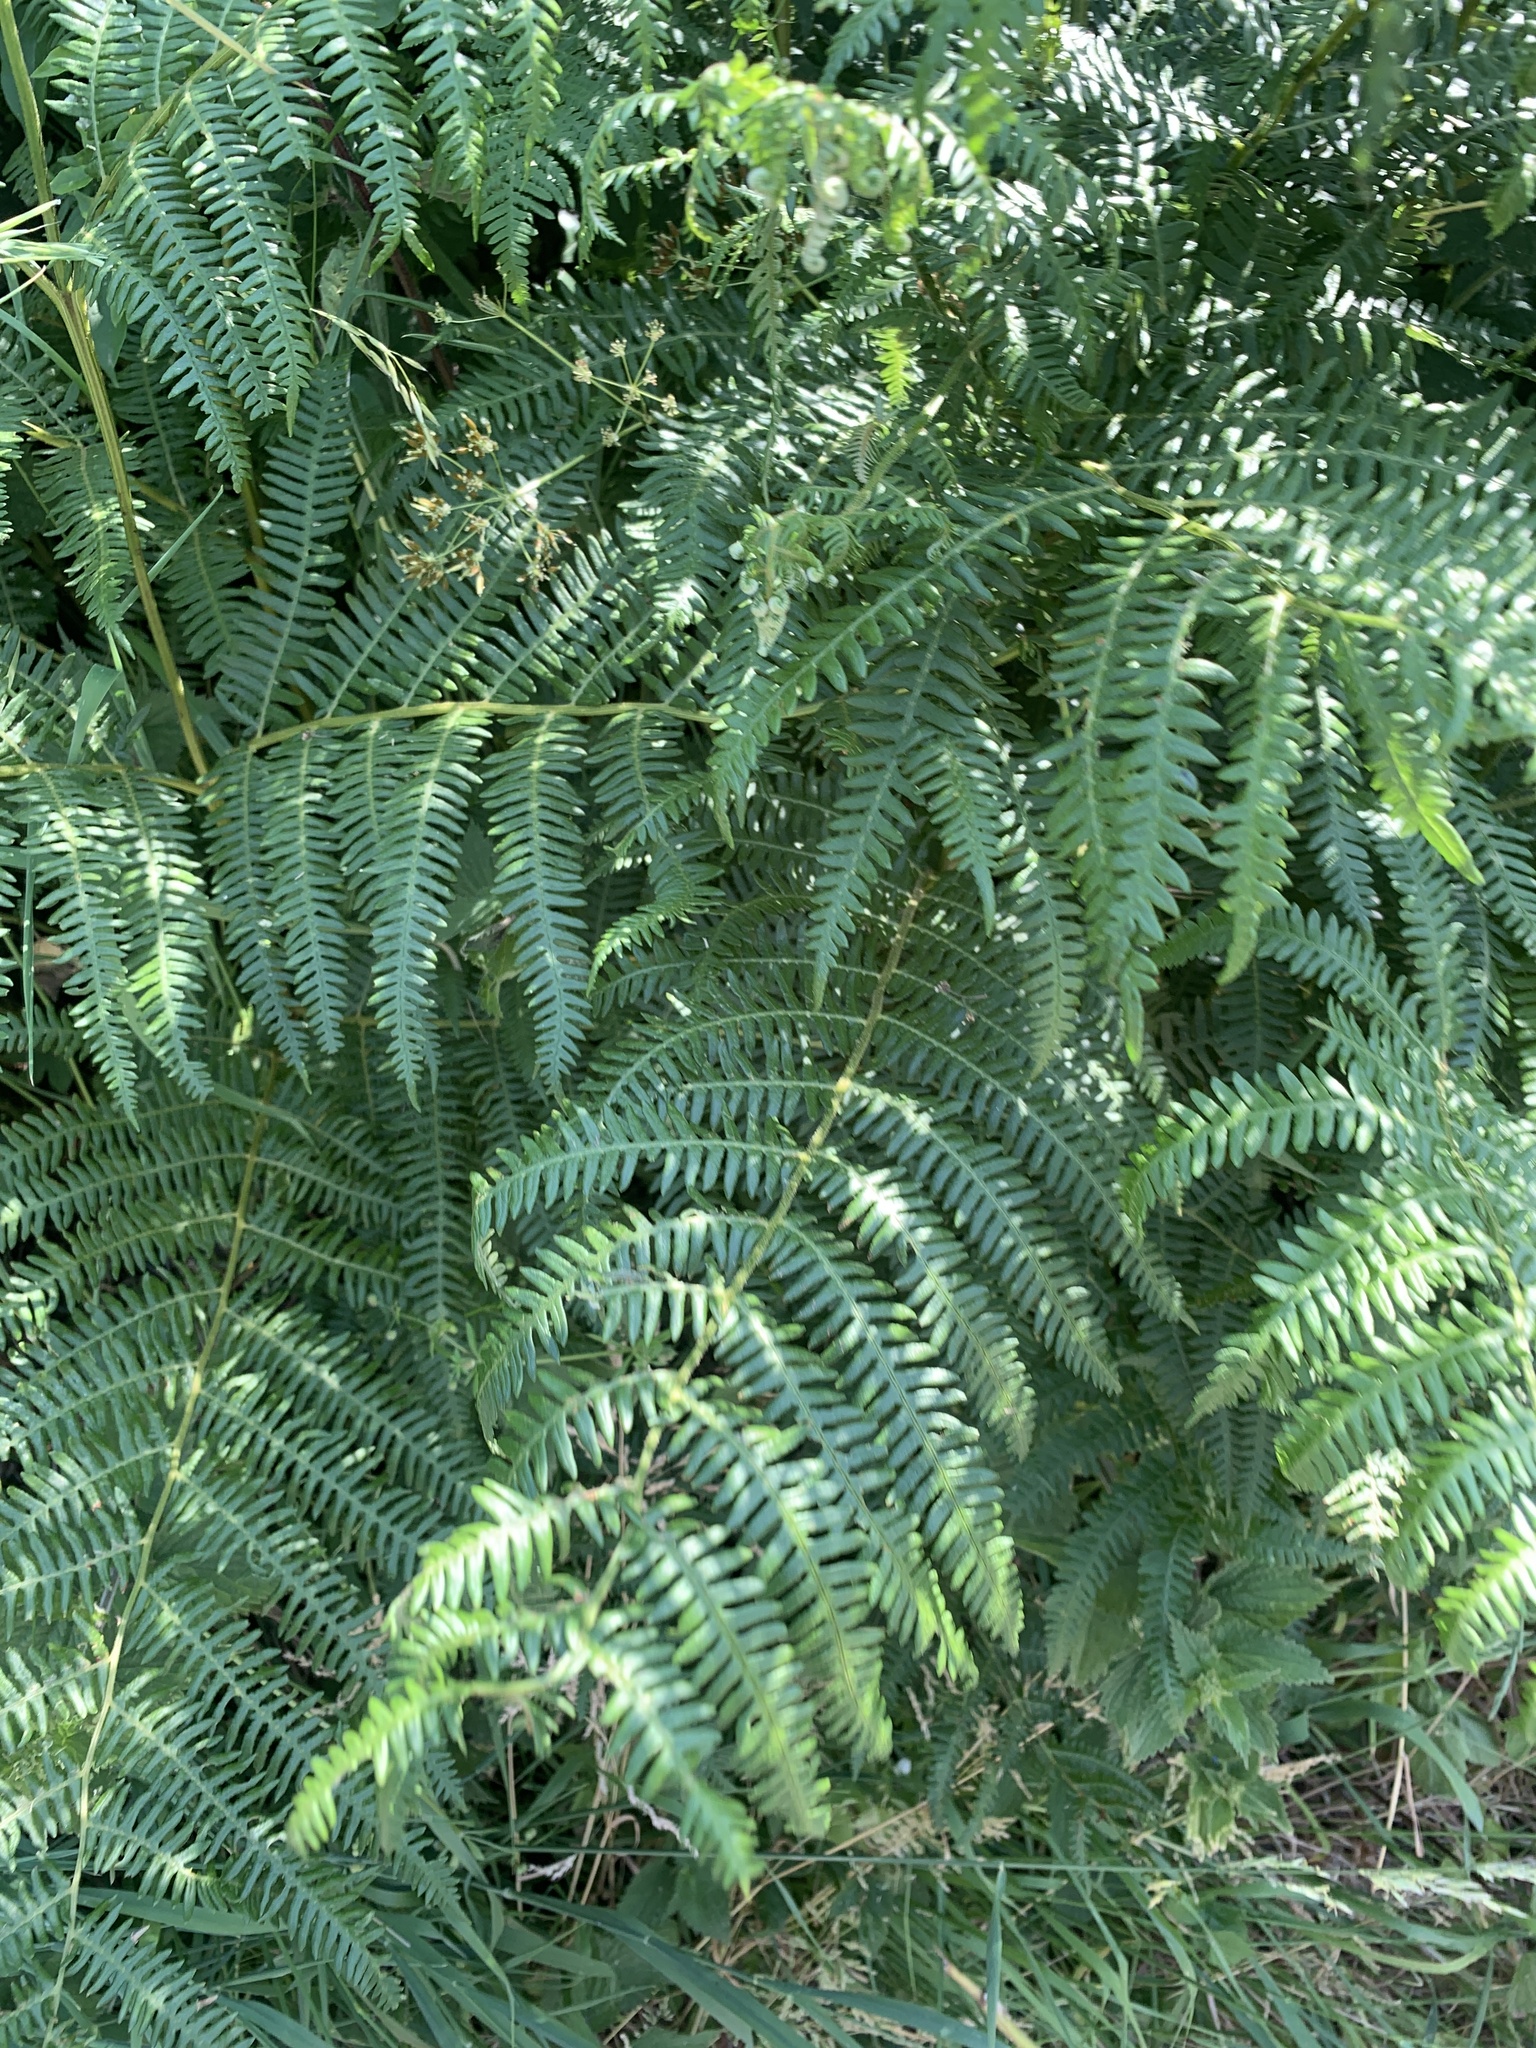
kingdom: Plantae
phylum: Tracheophyta
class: Polypodiopsida
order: Polypodiales
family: Dennstaedtiaceae
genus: Pteridium
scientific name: Pteridium aquilinum
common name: Bracken
